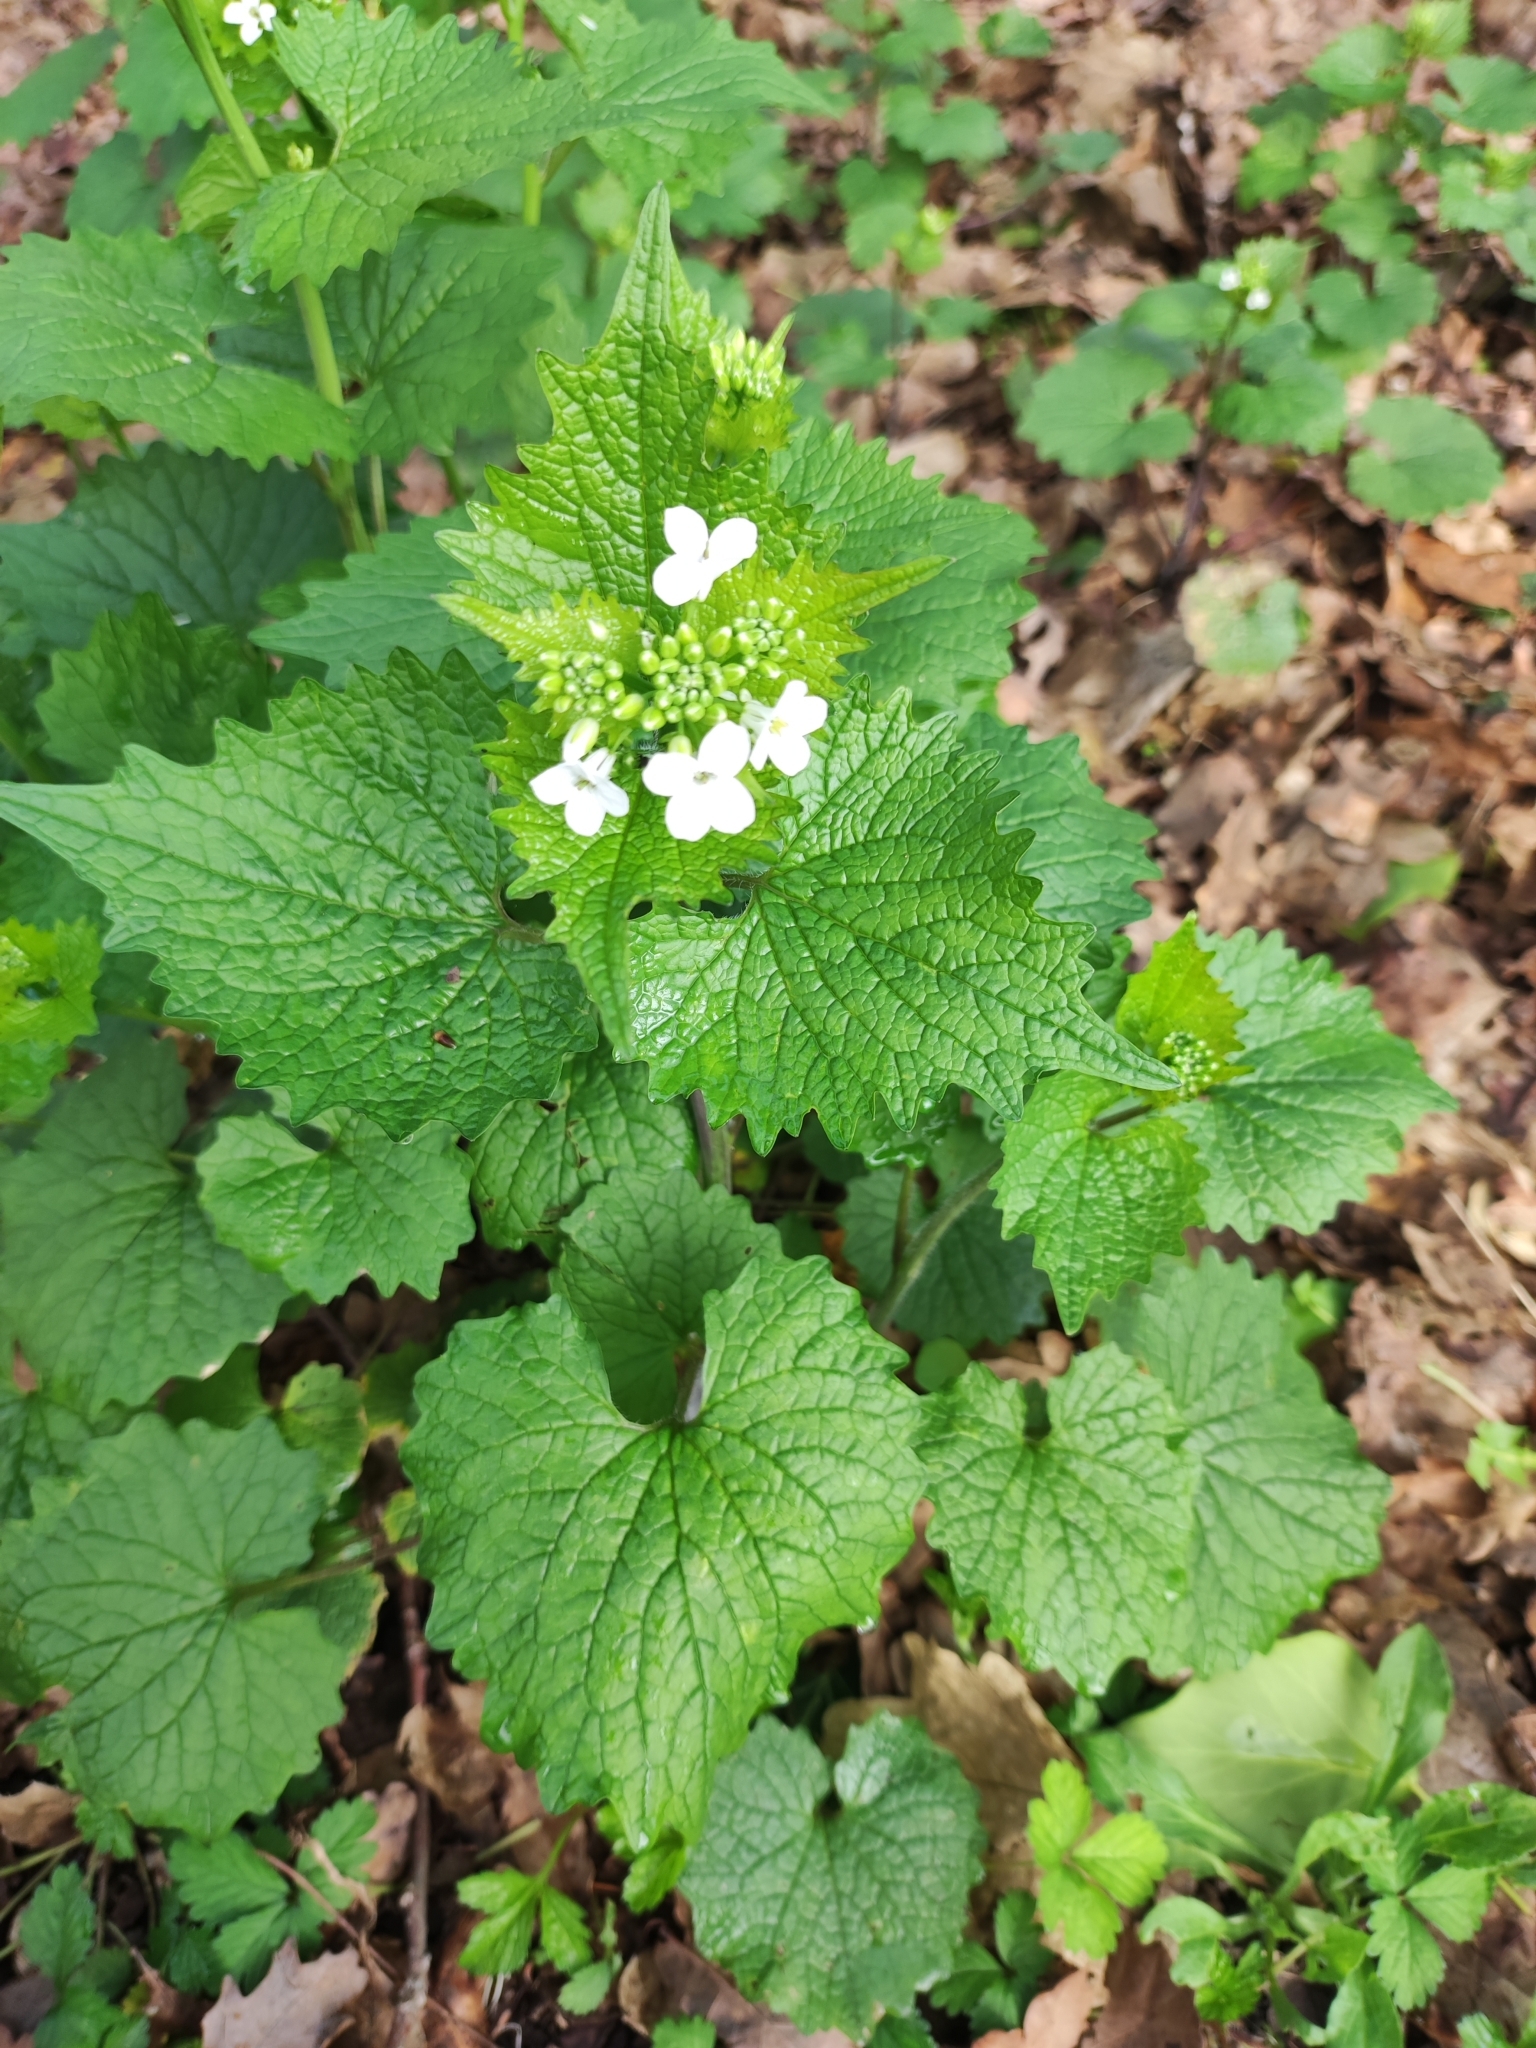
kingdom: Plantae
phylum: Tracheophyta
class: Magnoliopsida
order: Brassicales
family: Brassicaceae
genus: Alliaria
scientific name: Alliaria petiolata
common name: Garlic mustard
